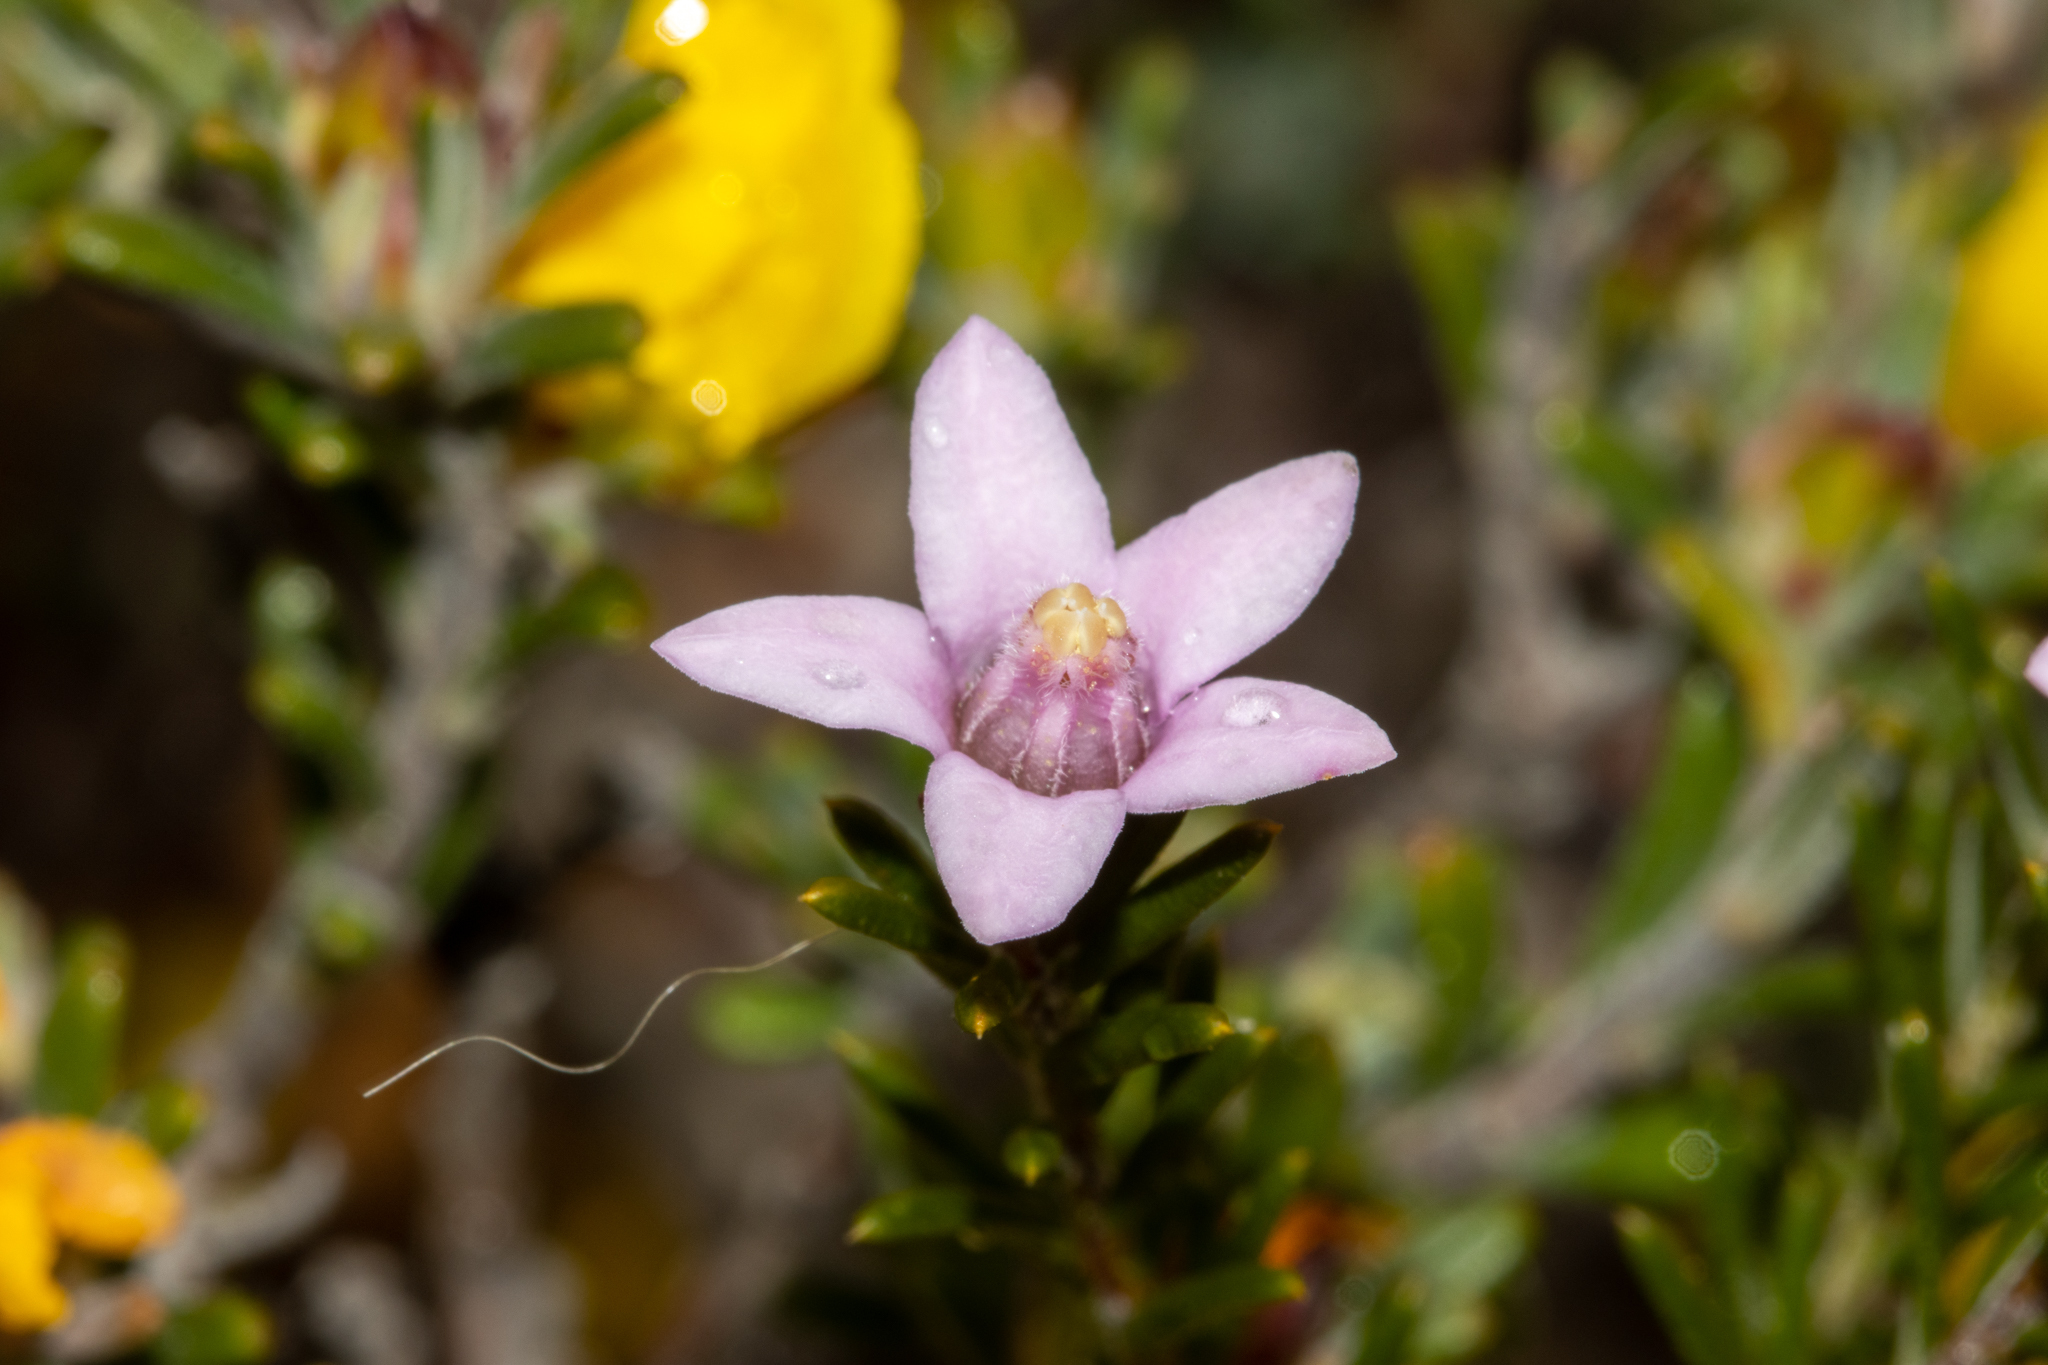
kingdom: Plantae
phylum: Tracheophyta
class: Magnoliopsida
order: Sapindales
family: Rutaceae
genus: Philotheca
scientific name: Philotheca pinoides
